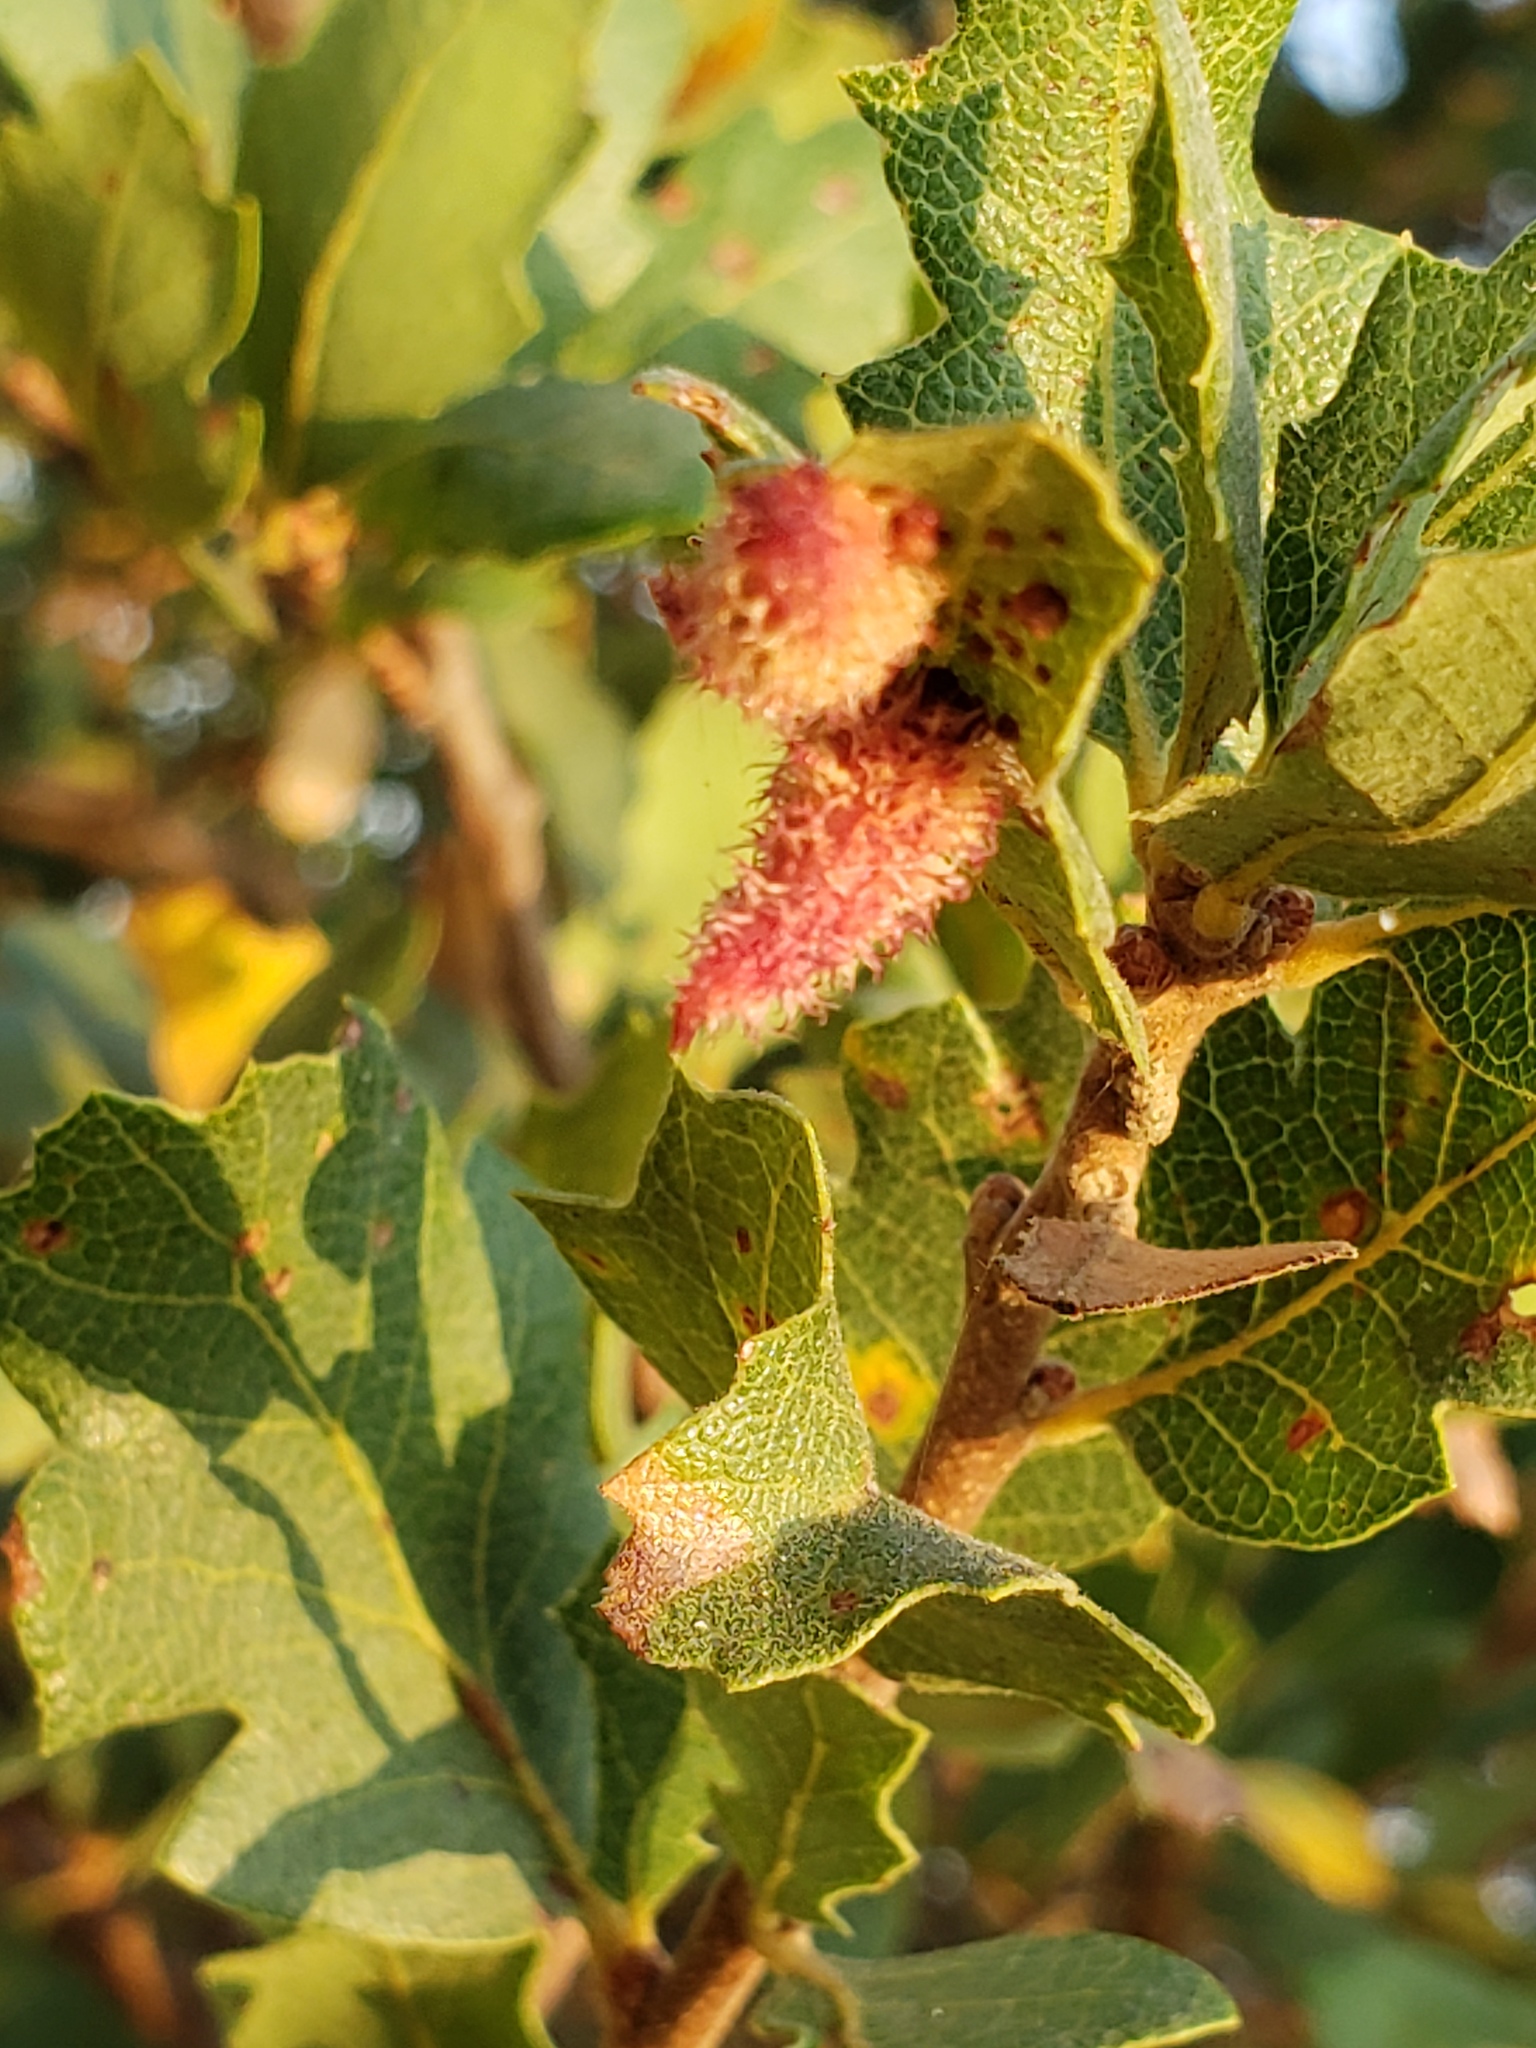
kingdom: Animalia
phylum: Arthropoda
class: Insecta
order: Hymenoptera
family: Cynipidae
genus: Andricus
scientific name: Andricus
